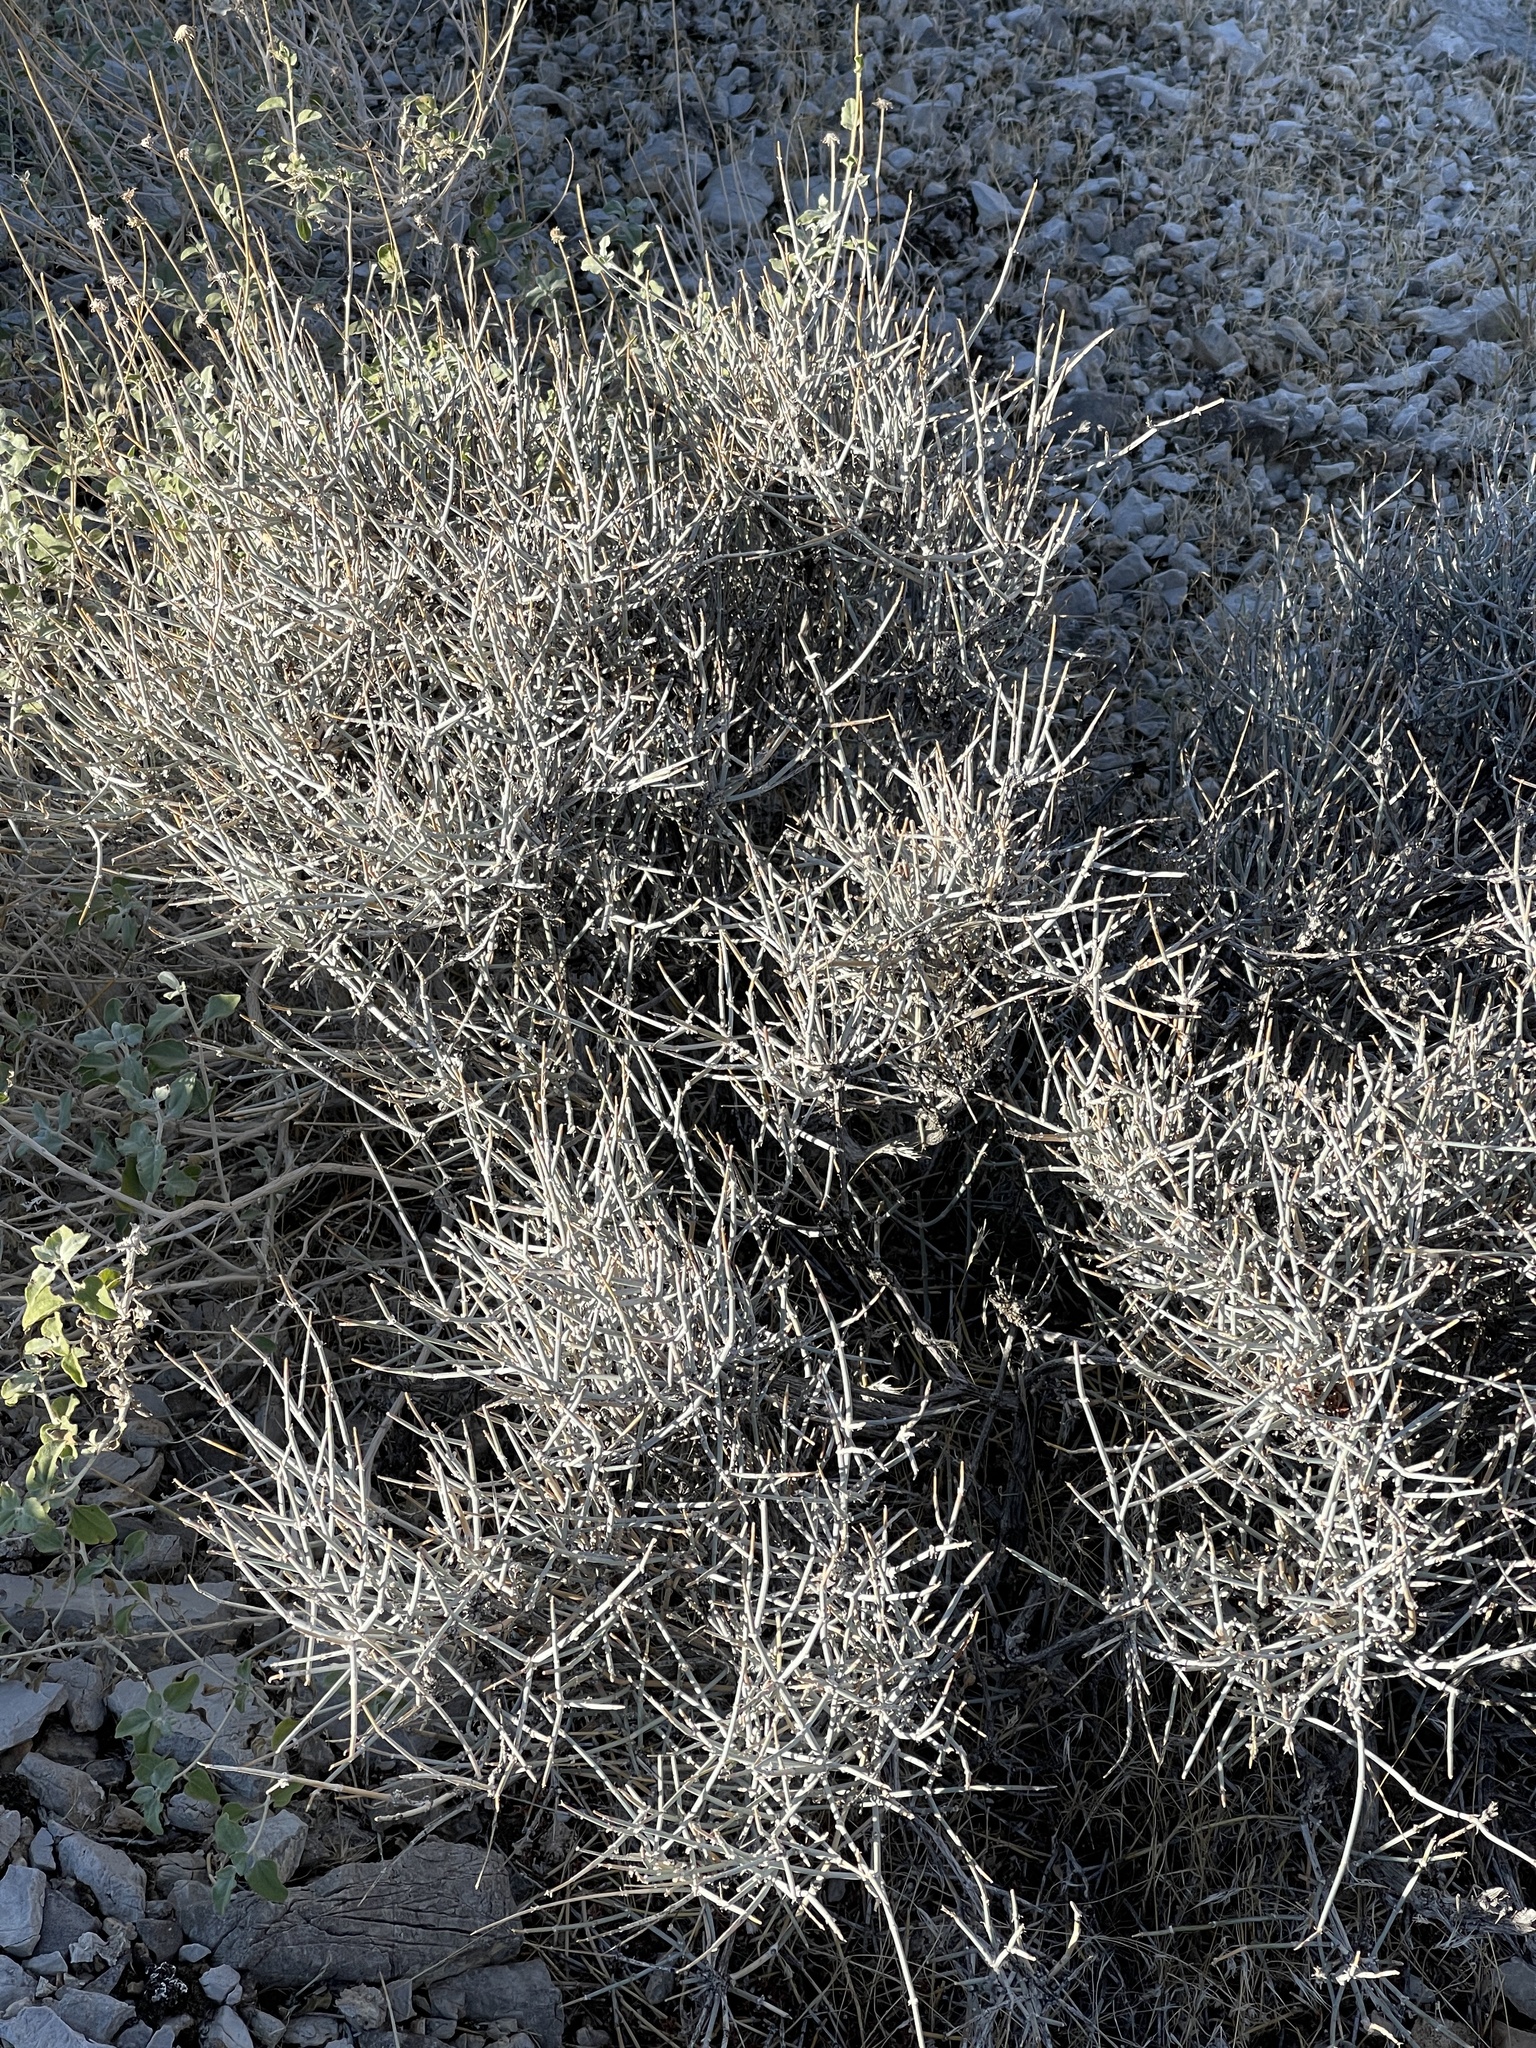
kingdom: Plantae
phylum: Tracheophyta
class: Gnetopsida
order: Ephedrales
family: Ephedraceae
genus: Ephedra
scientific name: Ephedra nevadensis
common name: Gray ephedra
